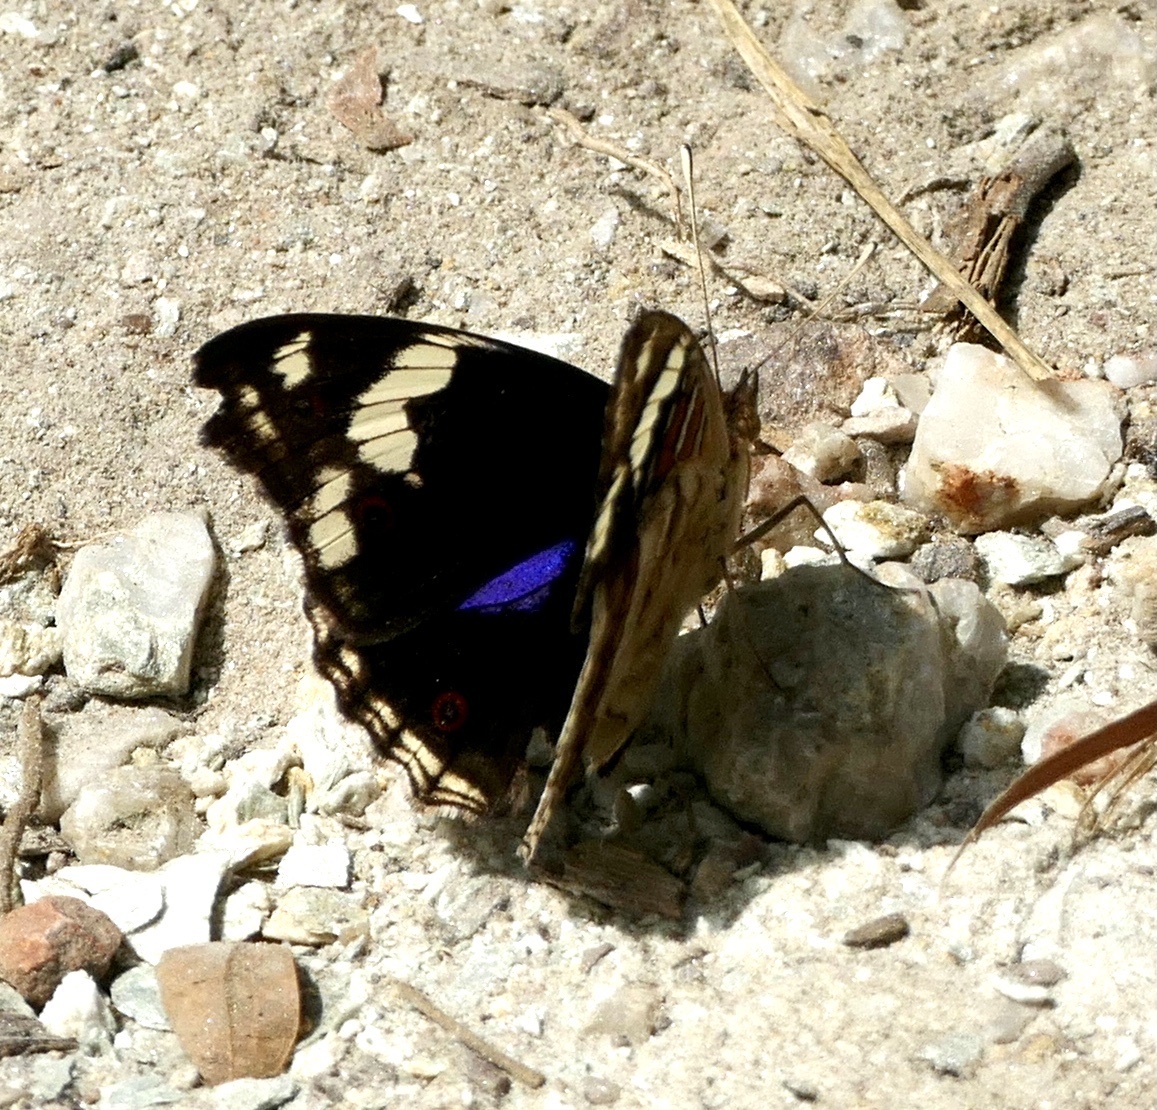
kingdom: Animalia
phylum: Arthropoda
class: Insecta
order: Lepidoptera
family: Nymphalidae
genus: Junonia
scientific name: Junonia oenone
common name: Dark blue pansy
